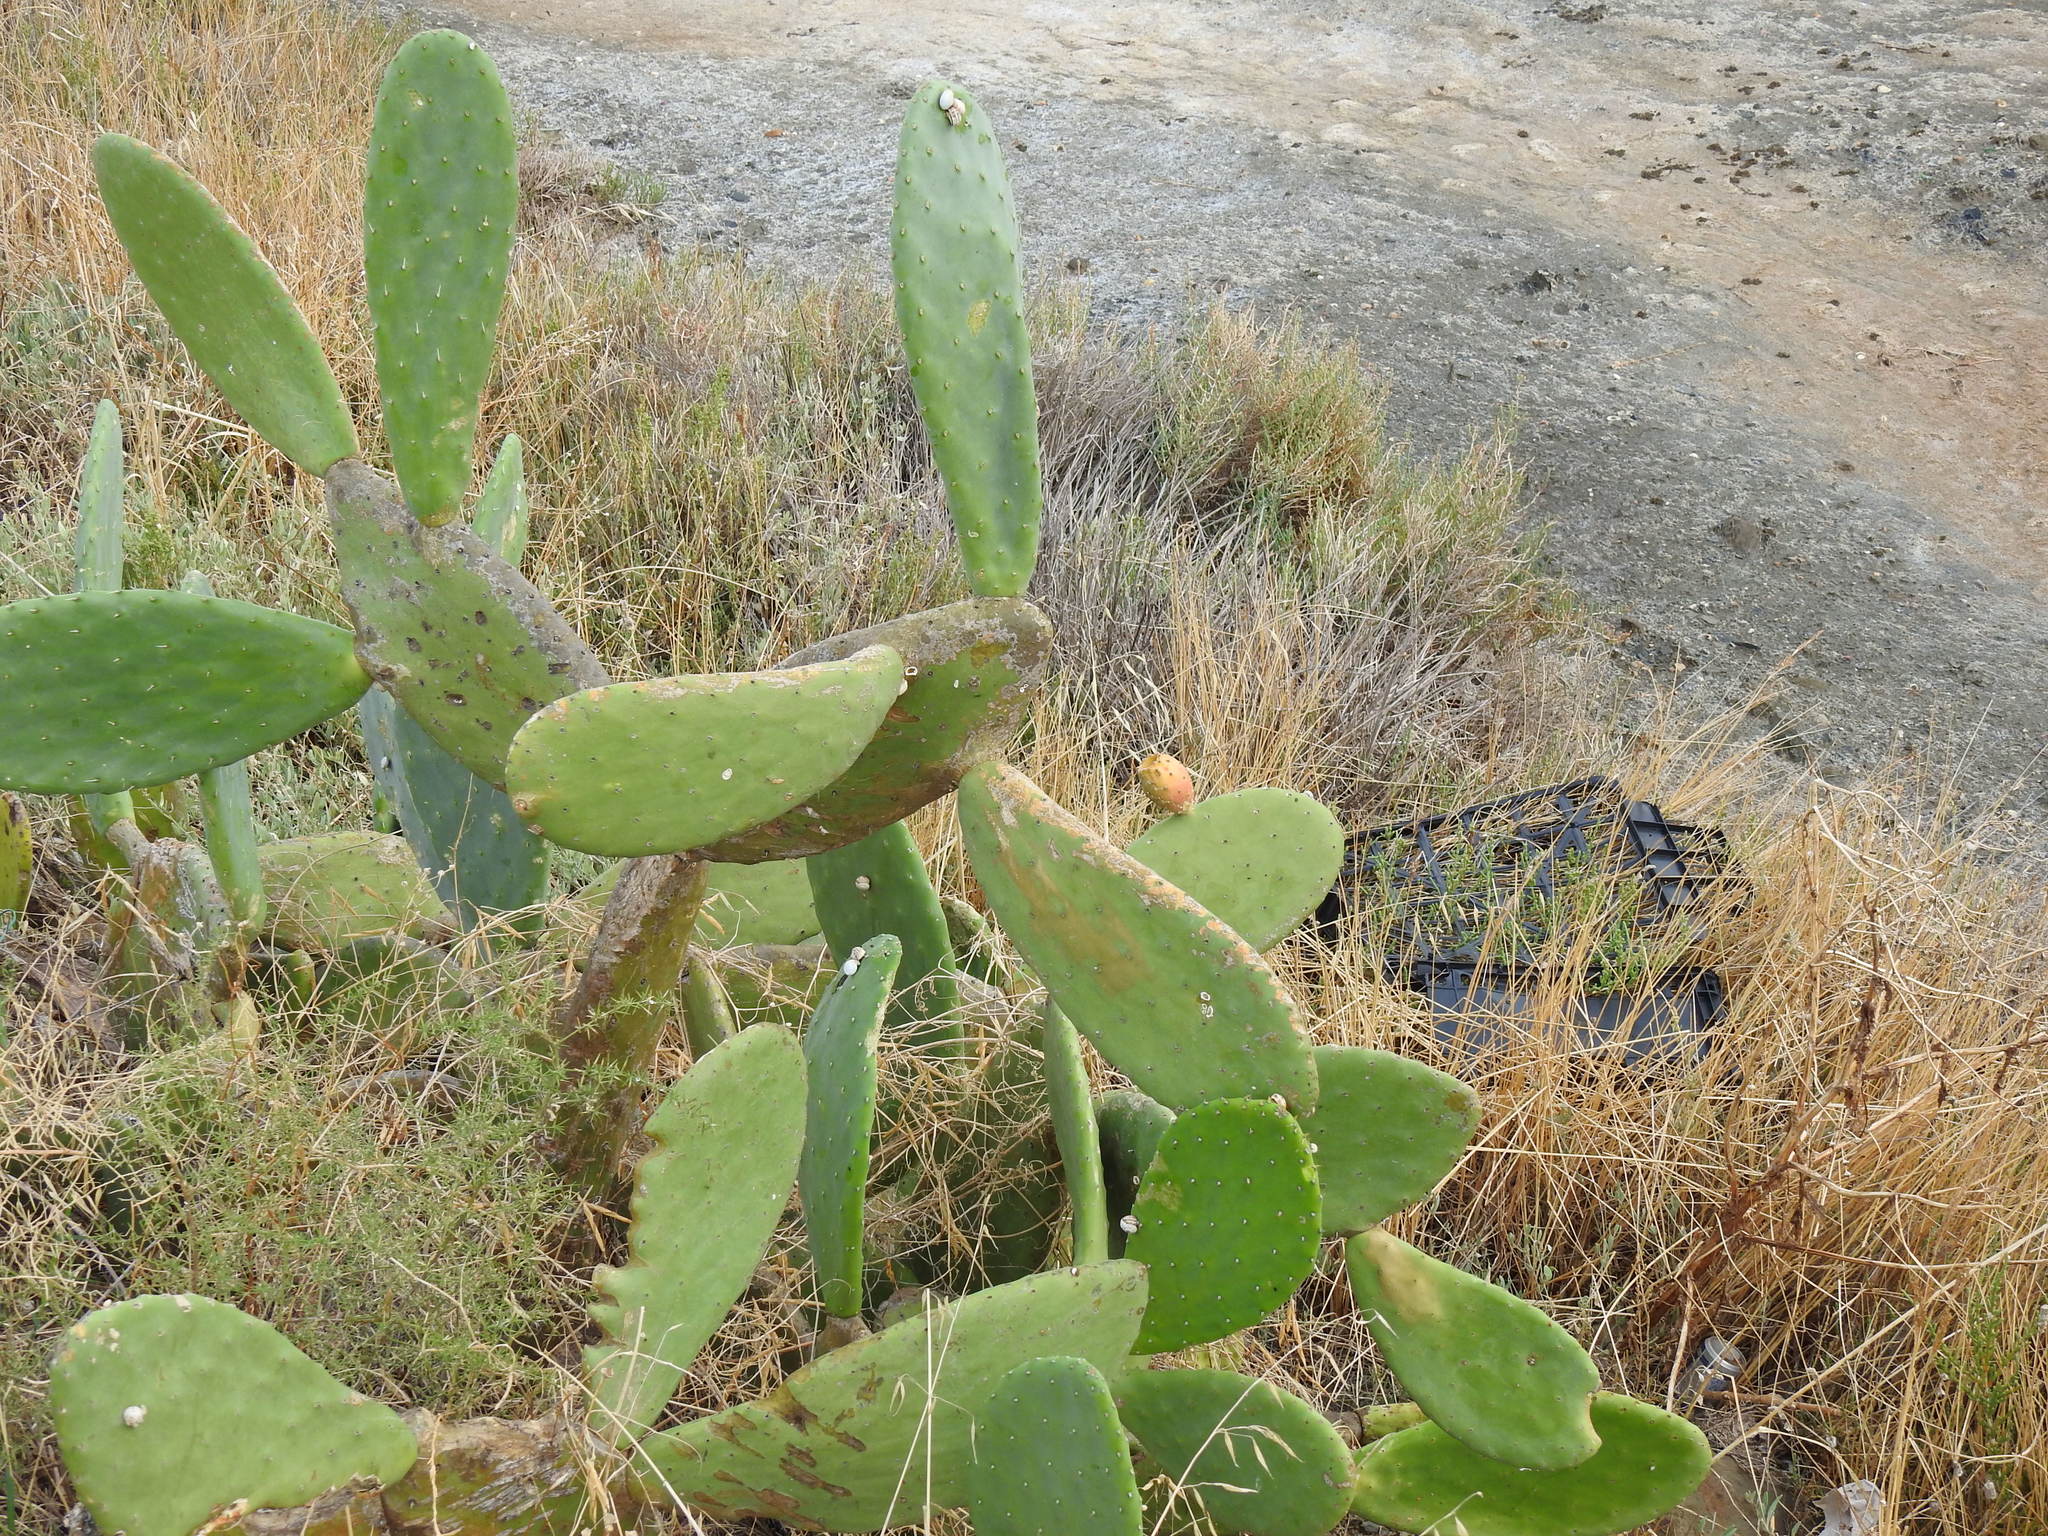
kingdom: Plantae
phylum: Tracheophyta
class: Magnoliopsida
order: Caryophyllales
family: Cactaceae
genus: Opuntia
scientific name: Opuntia ficus-indica
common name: Barbary fig
